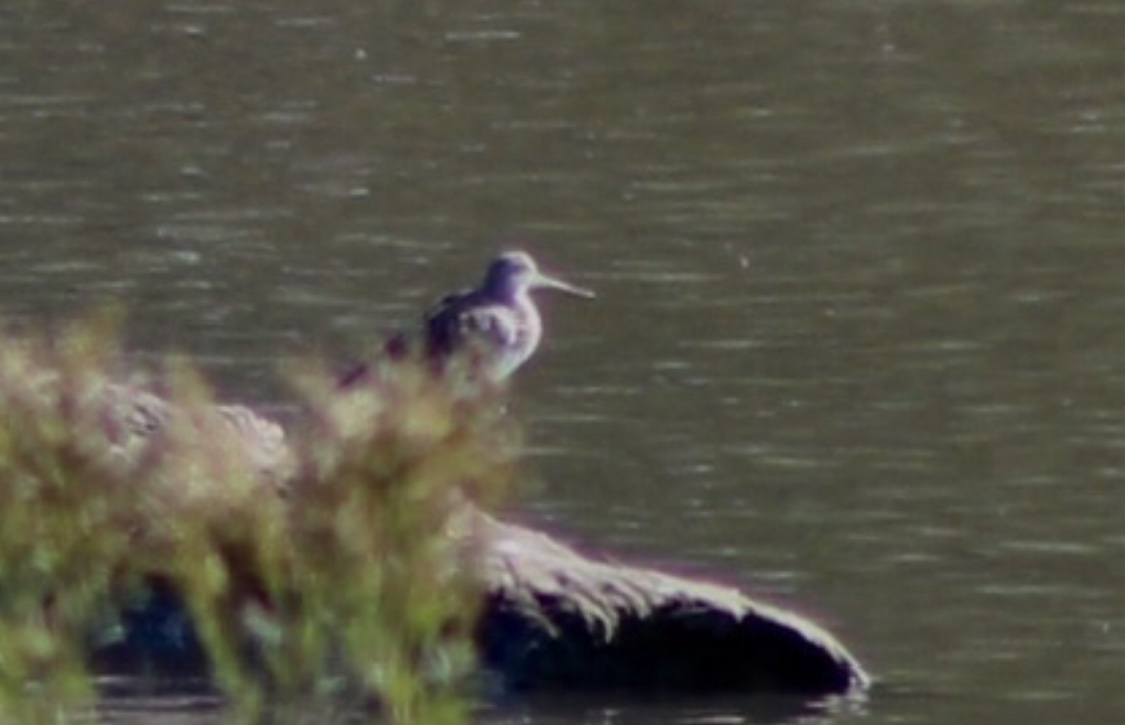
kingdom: Animalia
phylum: Chordata
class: Aves
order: Charadriiformes
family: Scolopacidae
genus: Tringa
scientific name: Tringa semipalmata
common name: Willet
